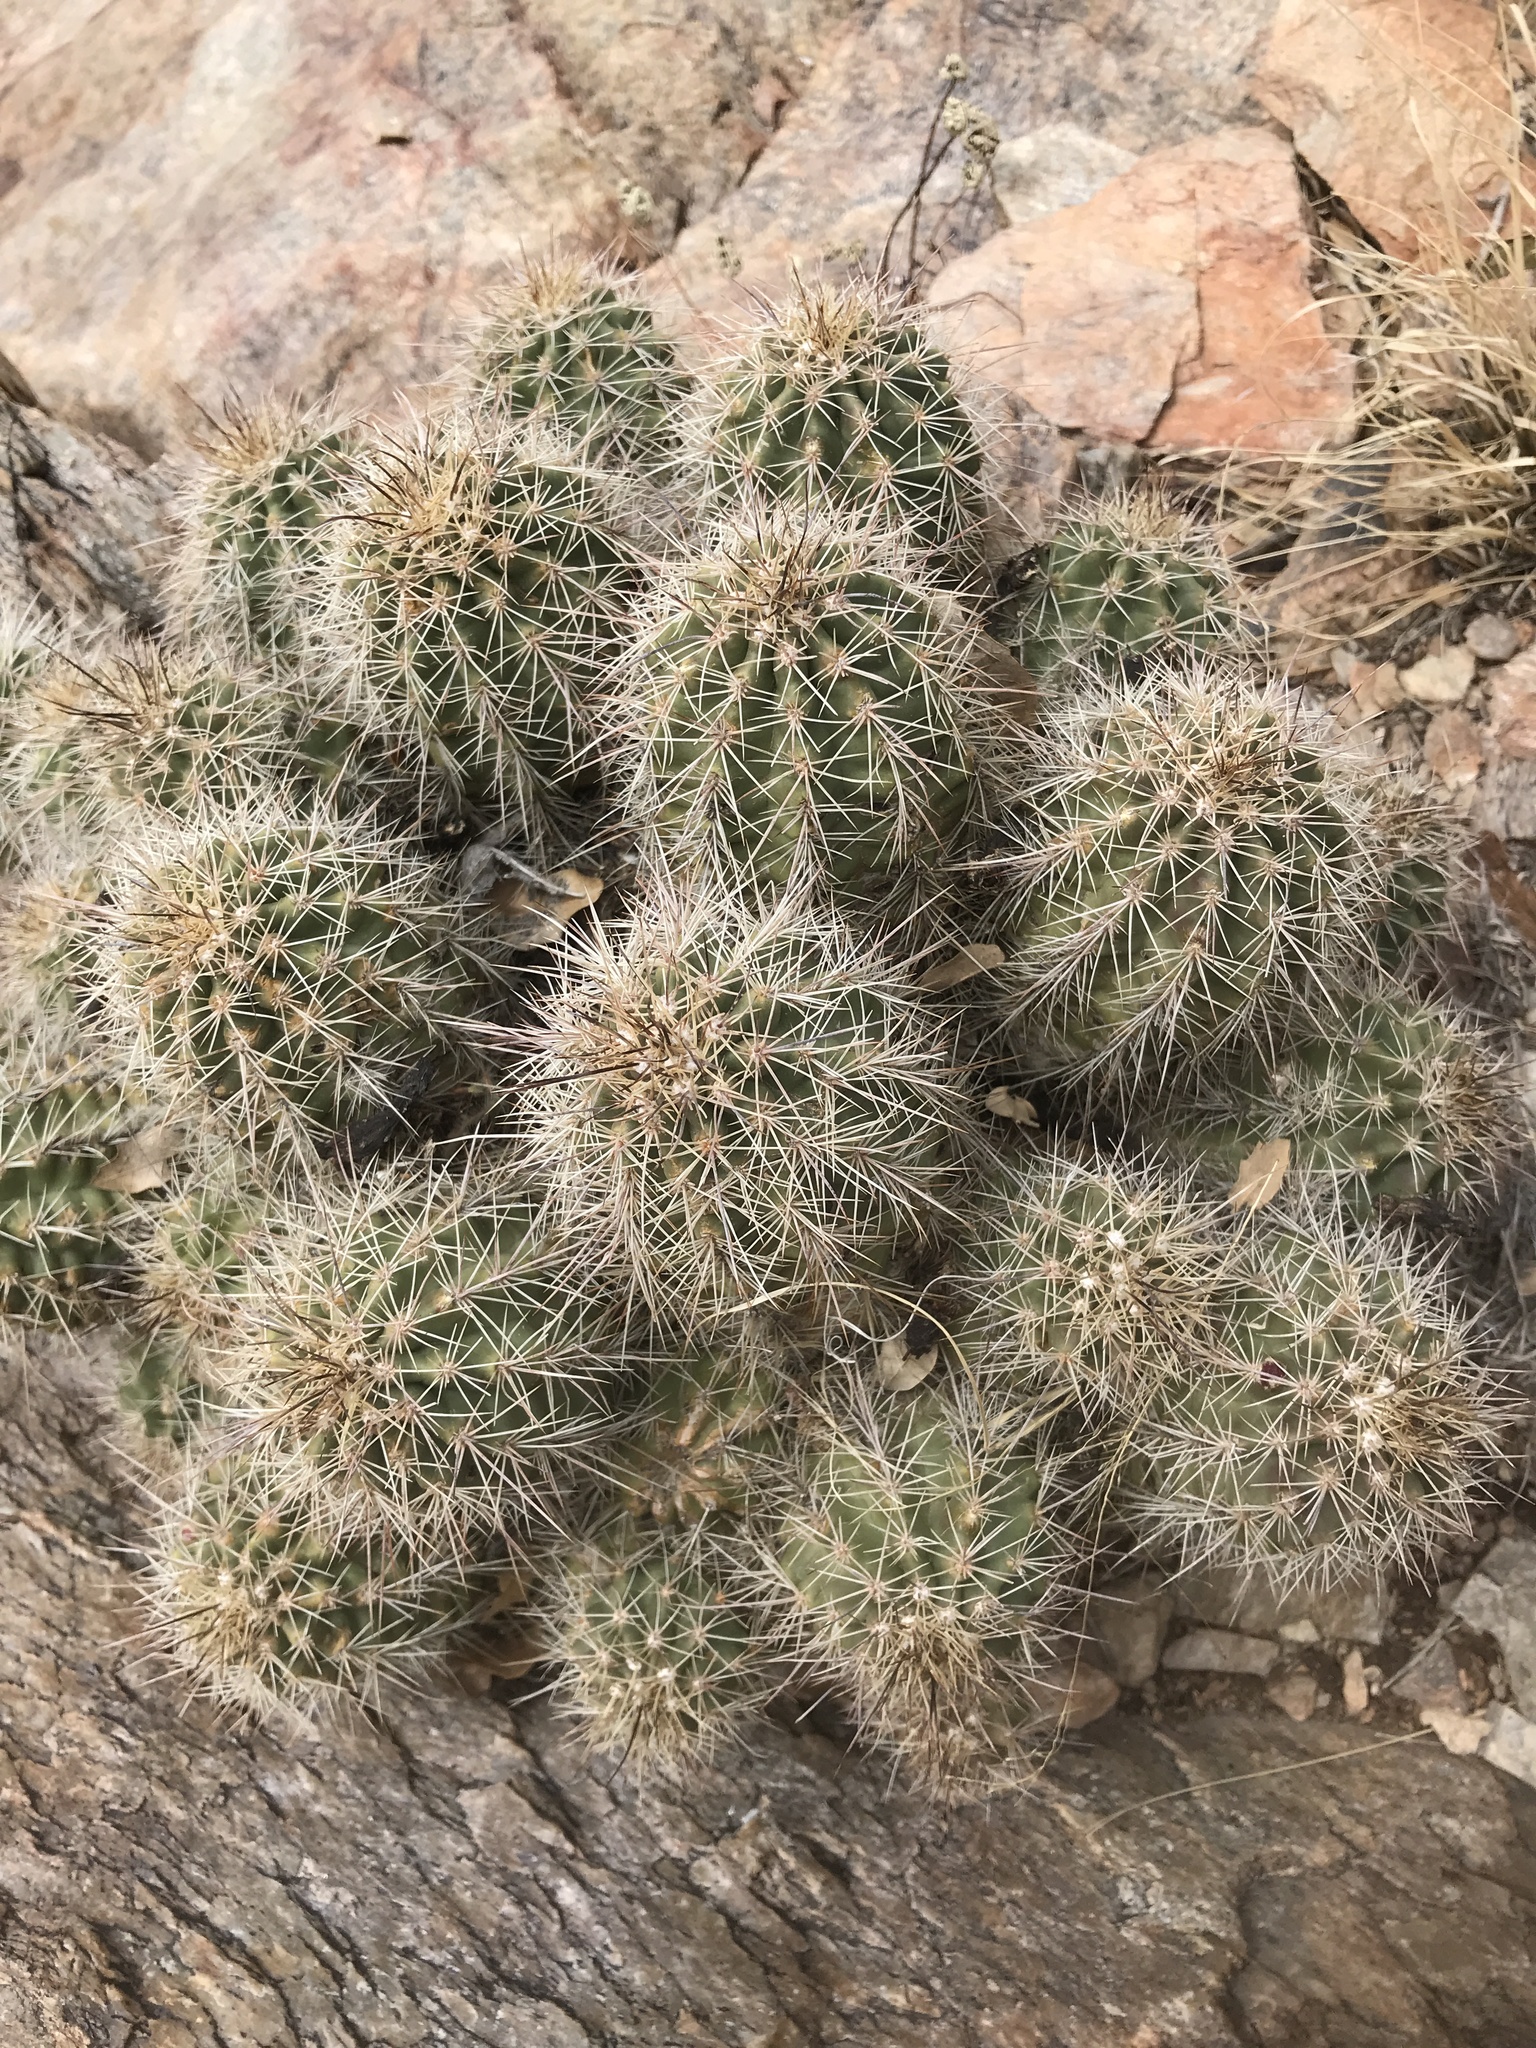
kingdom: Plantae
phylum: Tracheophyta
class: Magnoliopsida
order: Caryophyllales
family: Cactaceae
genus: Echinocereus
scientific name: Echinocereus coccineus
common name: Scarlet hedgehog cactus
